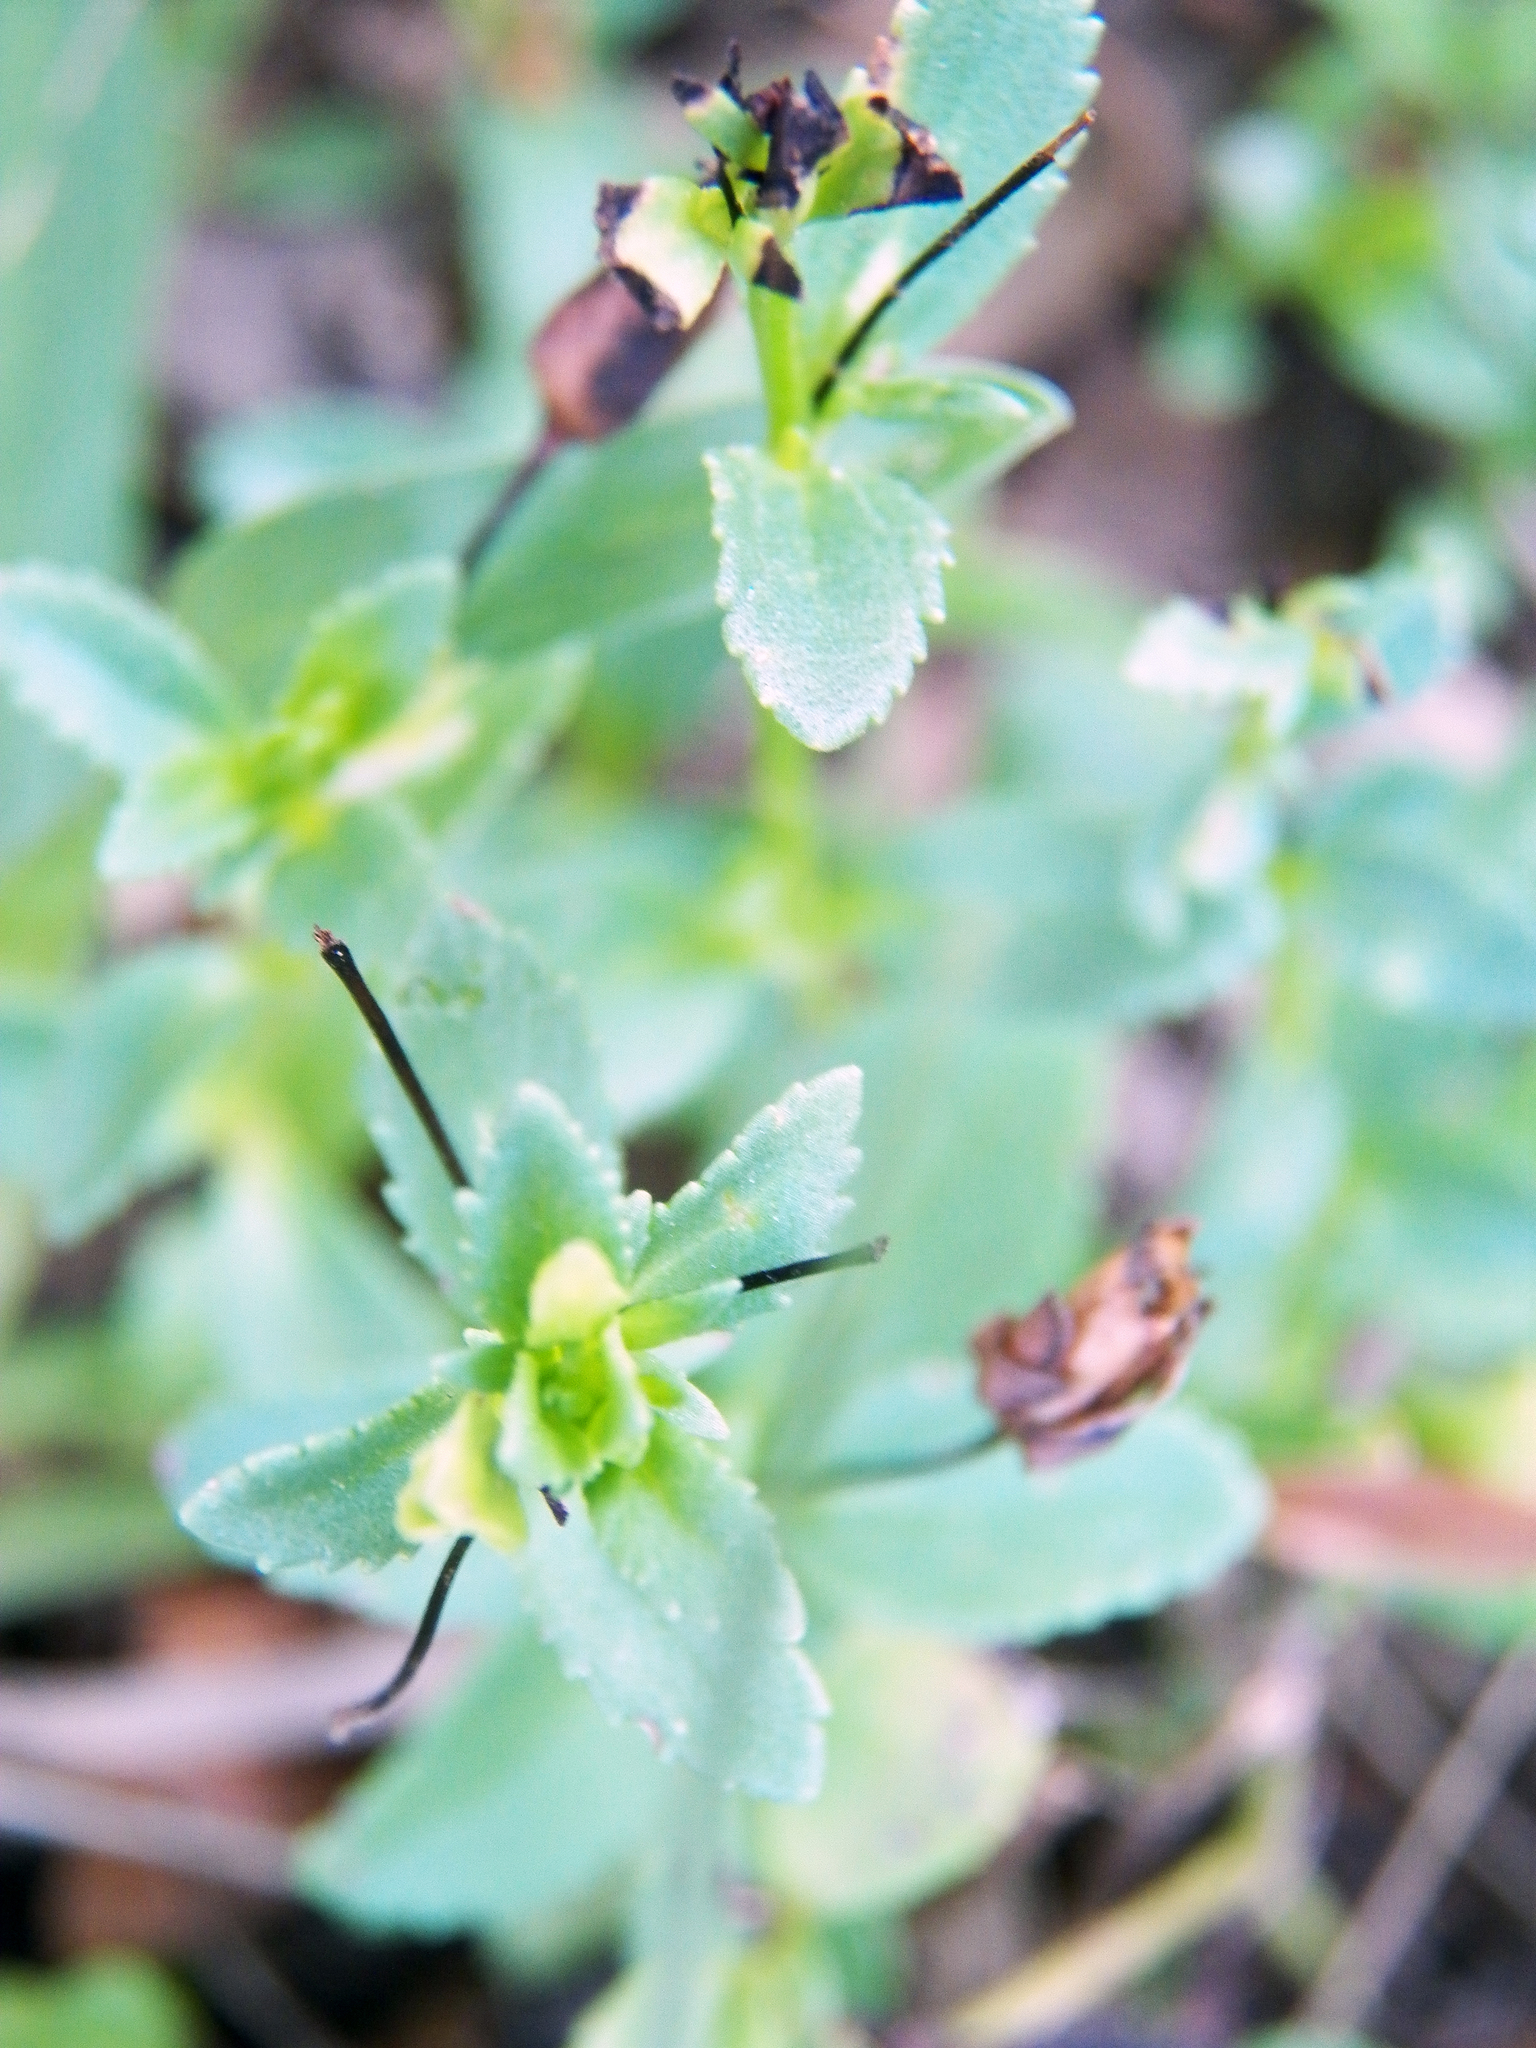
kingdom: Plantae
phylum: Tracheophyta
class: Magnoliopsida
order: Lamiales
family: Plantaginaceae
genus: Mecardonia
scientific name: Mecardonia procumbens
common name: Baby jump-up
